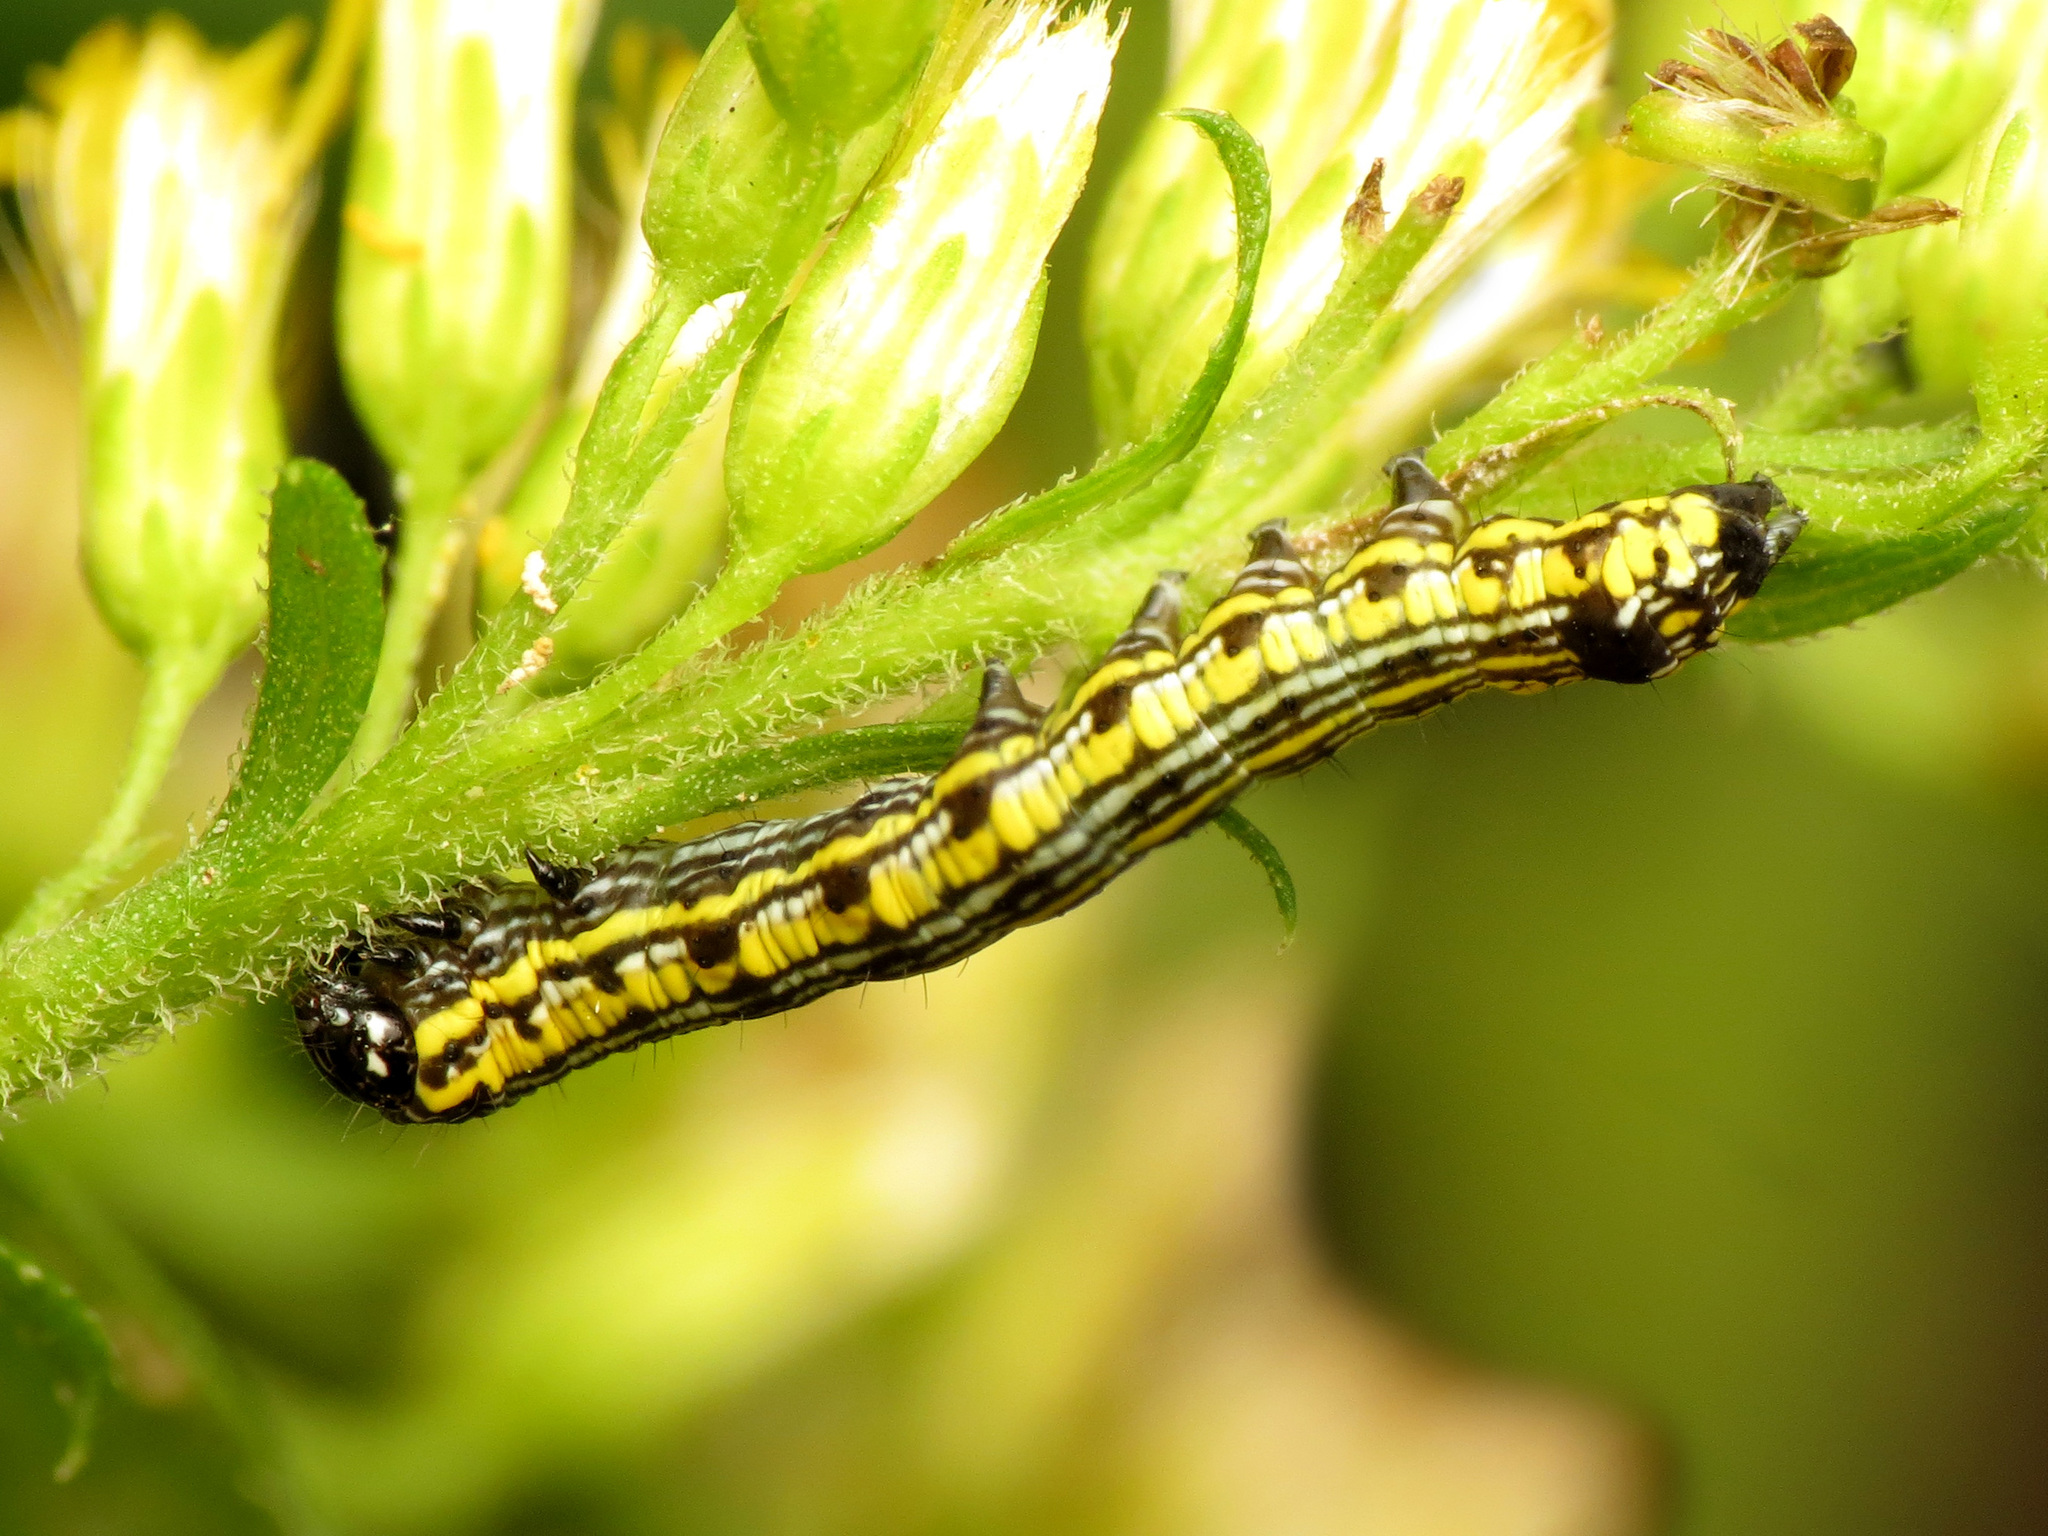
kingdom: Animalia
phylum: Arthropoda
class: Insecta
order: Lepidoptera
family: Noctuidae
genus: Cucullia
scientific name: Cucullia convexipennis
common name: Brown-hooded owlet
